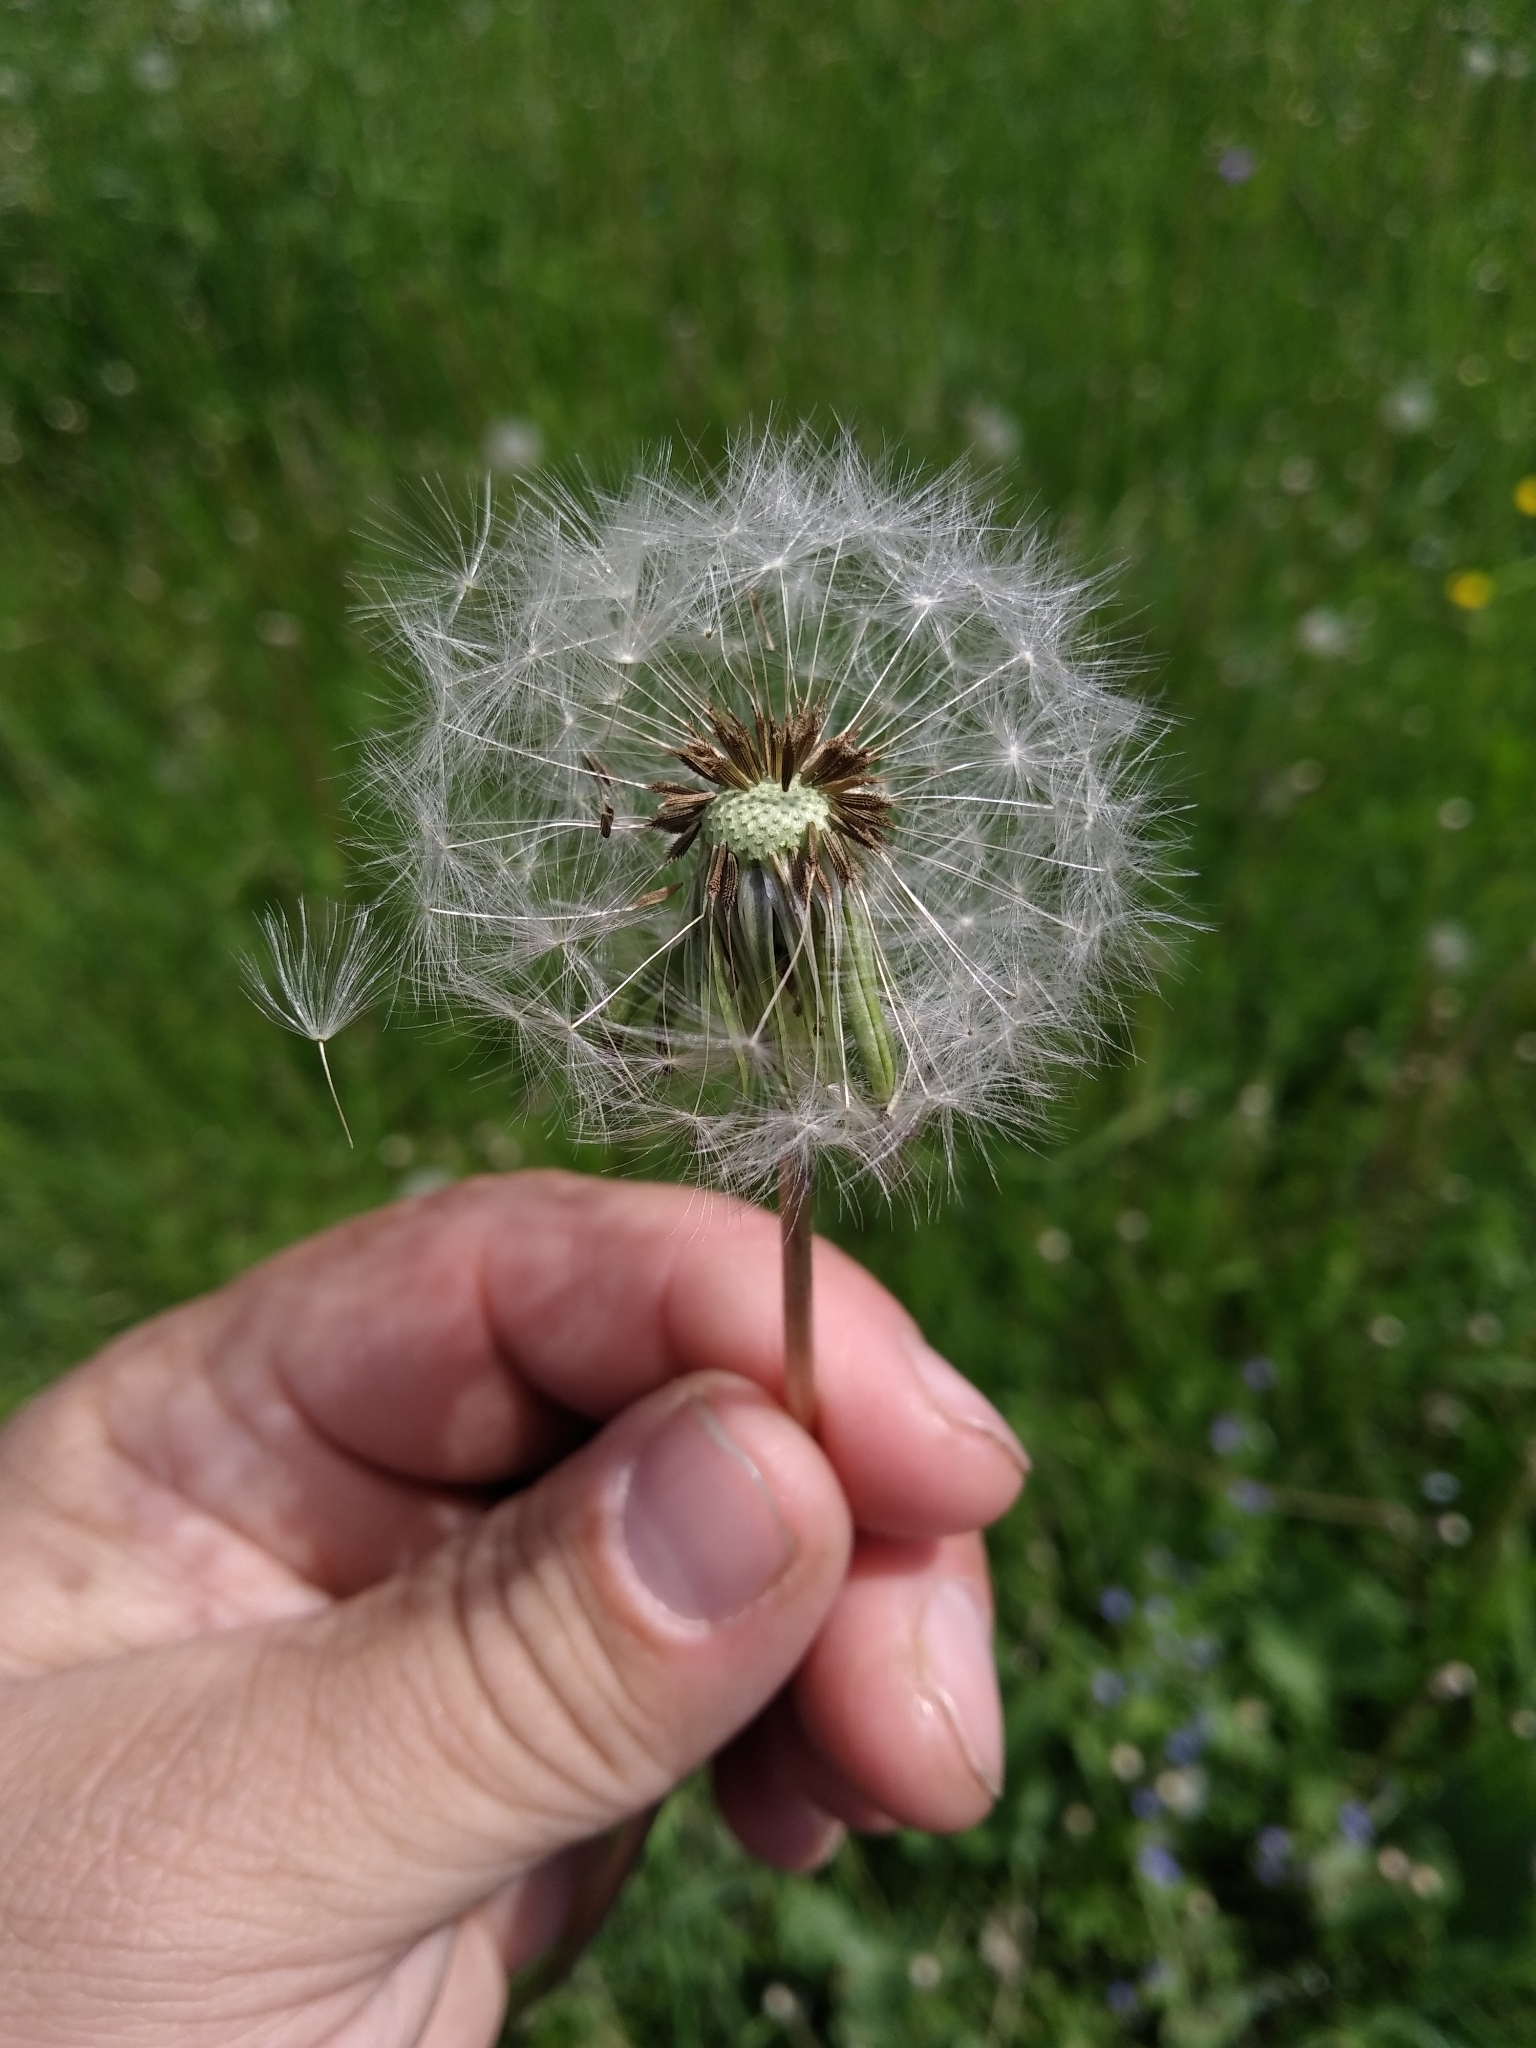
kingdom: Plantae
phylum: Tracheophyta
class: Magnoliopsida
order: Asterales
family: Asteraceae
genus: Taraxacum
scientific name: Taraxacum officinale
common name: Common dandelion
